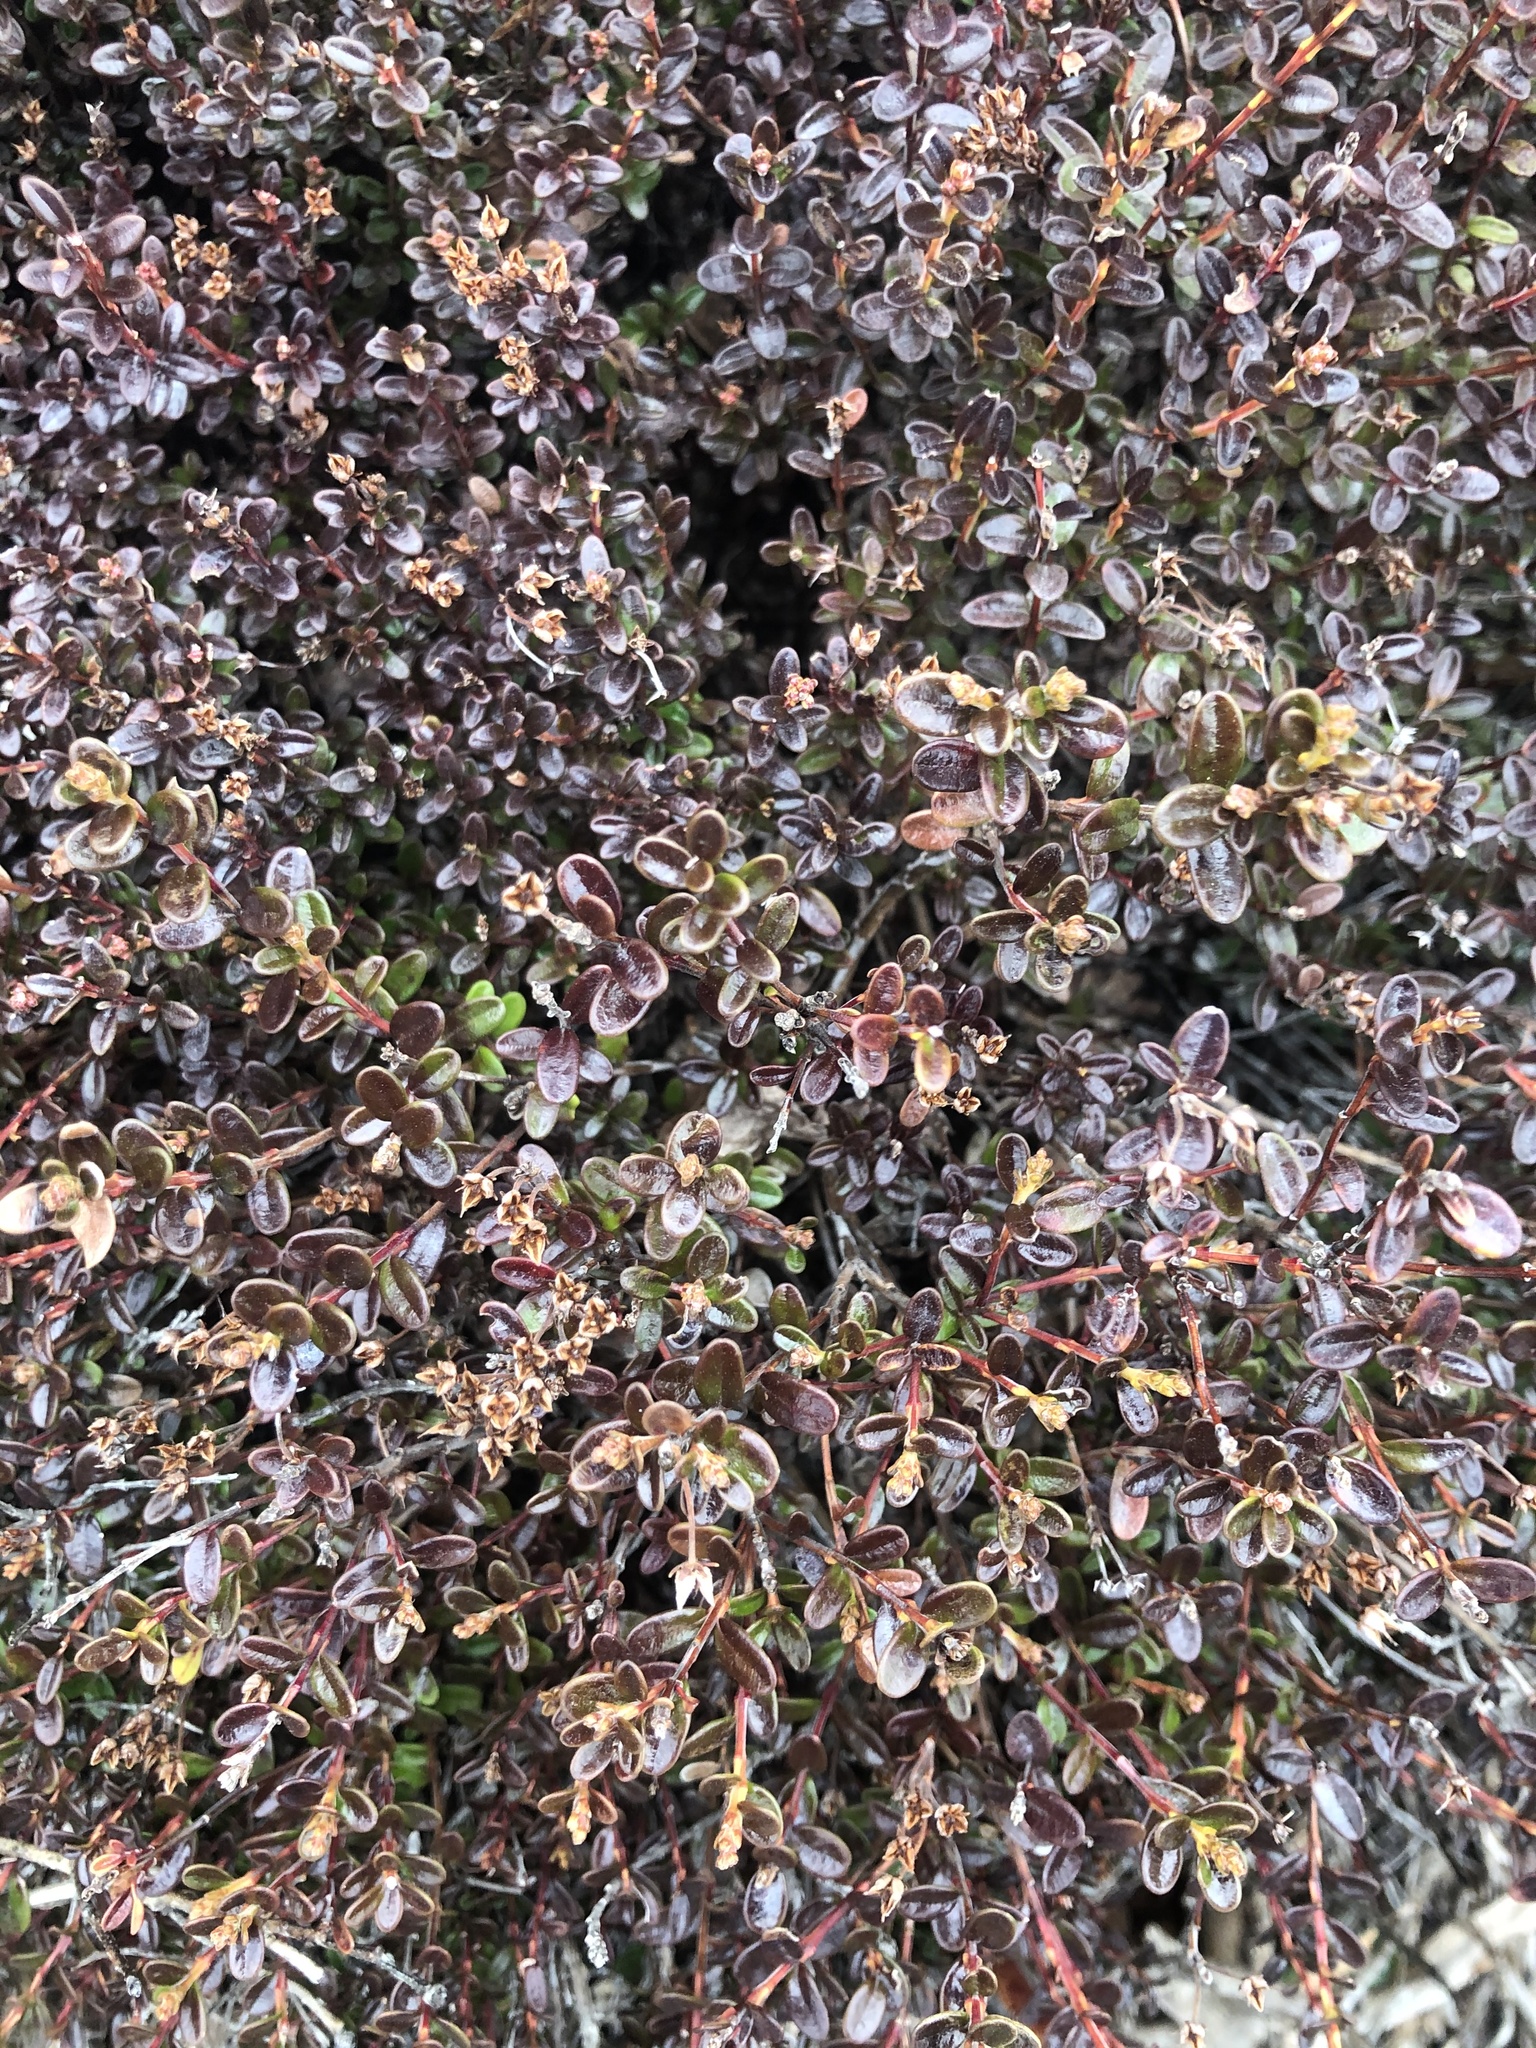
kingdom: Plantae
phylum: Tracheophyta
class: Magnoliopsida
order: Ericales
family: Ericaceae
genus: Kalmia
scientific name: Kalmia buxifolia
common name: Sandmyrtle
